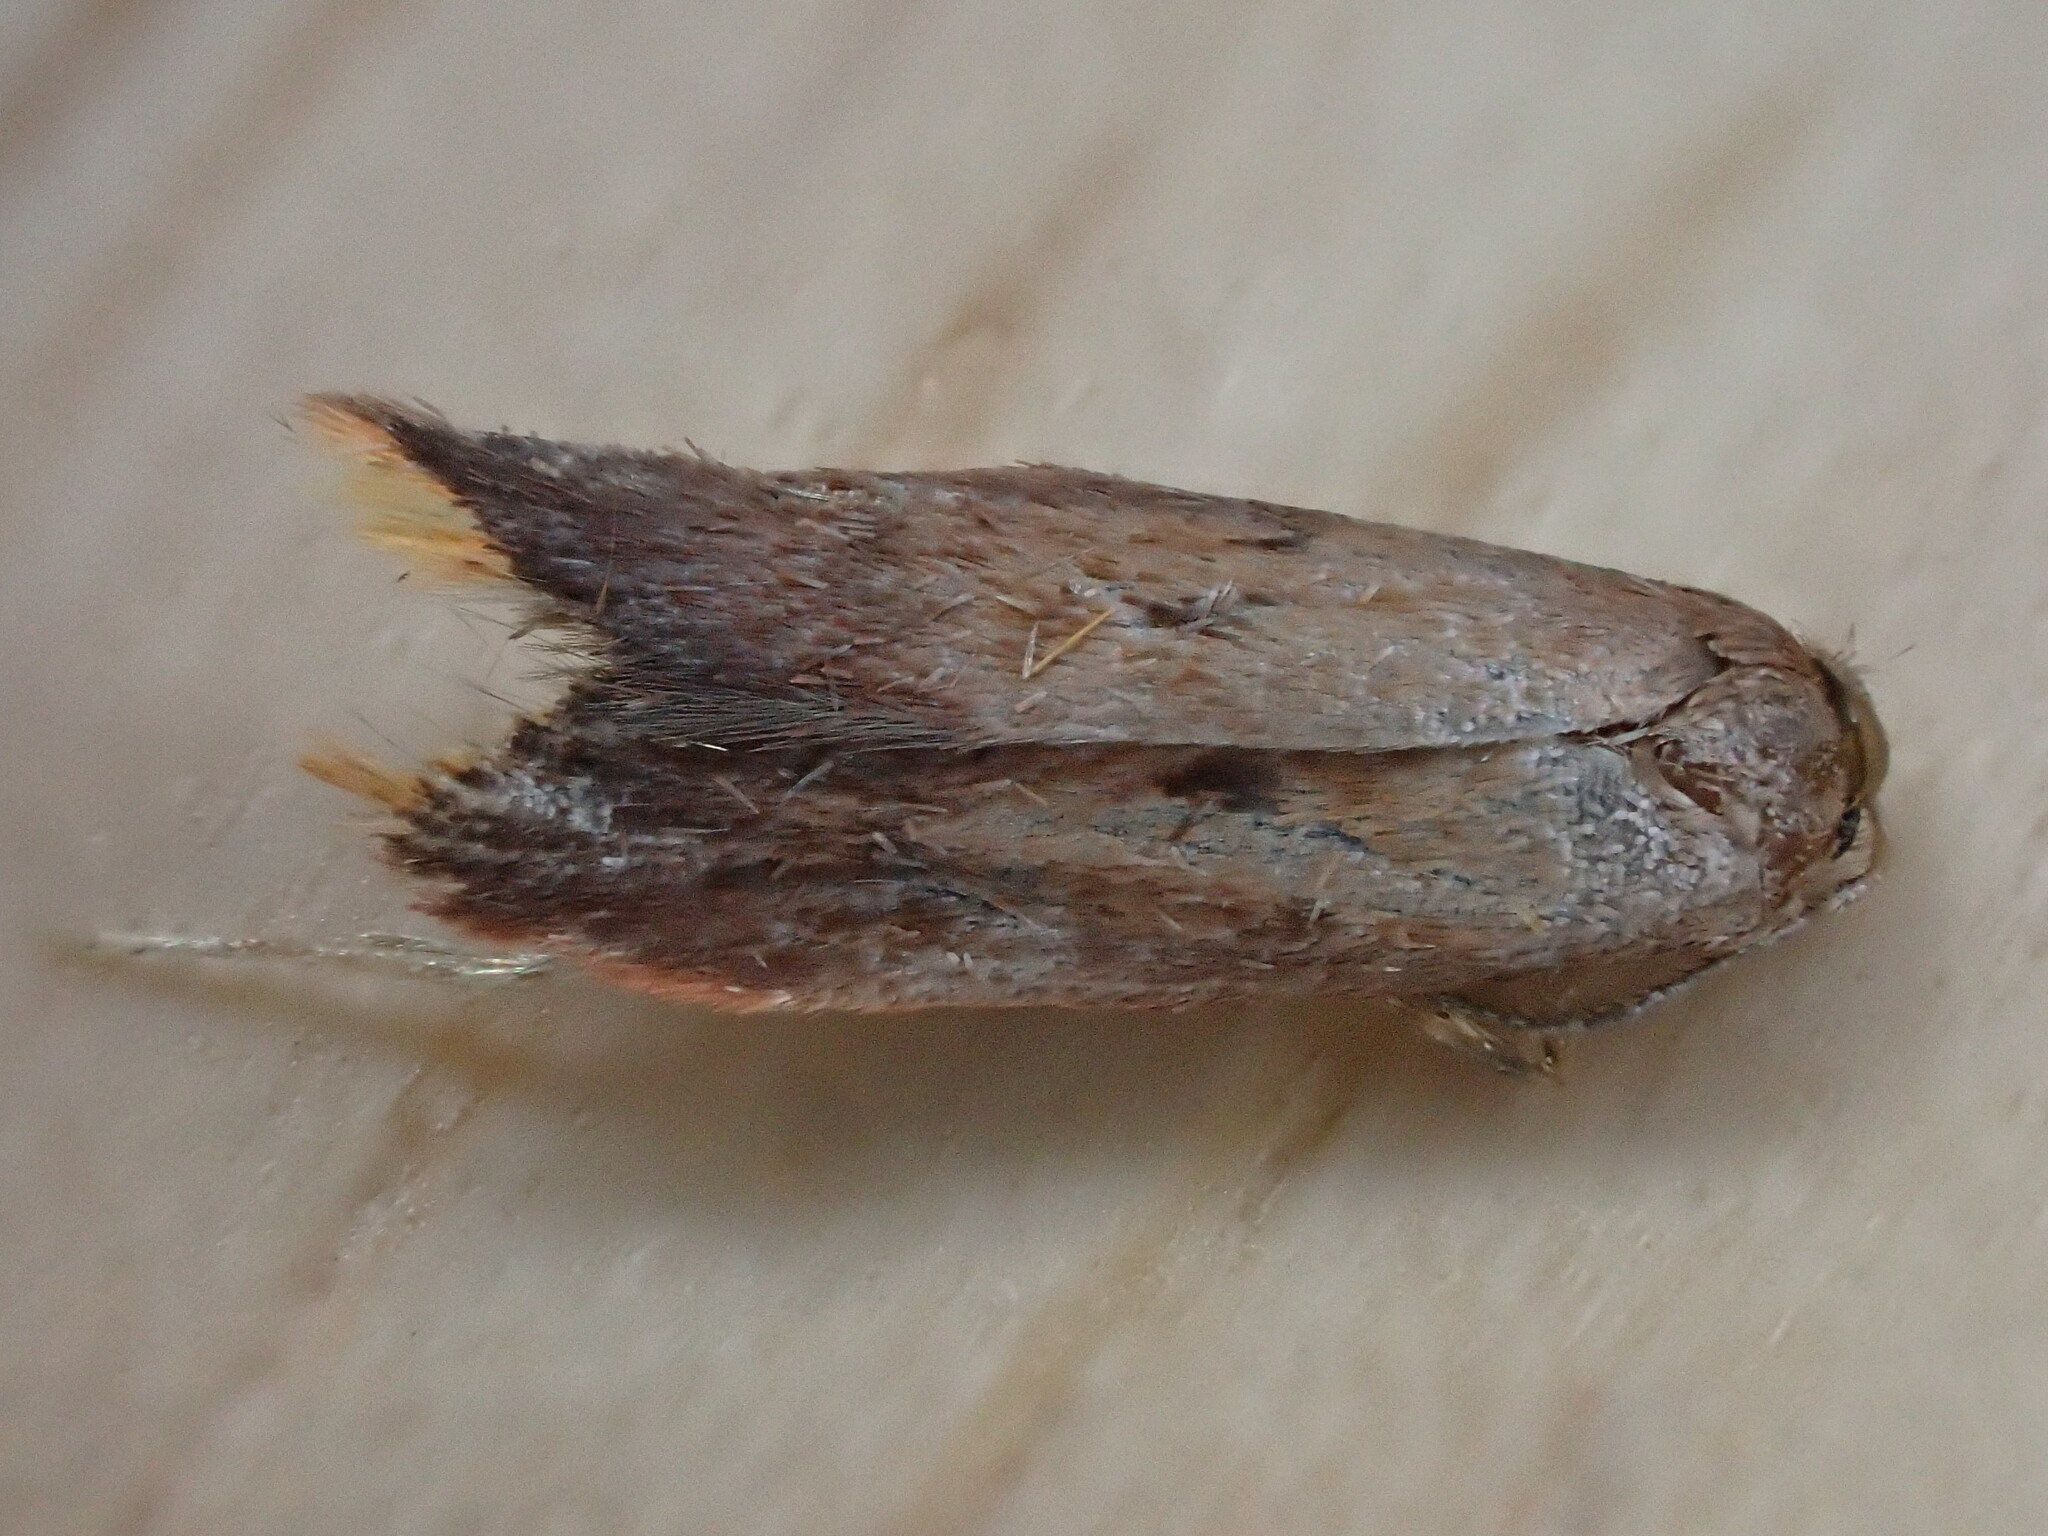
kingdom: Animalia
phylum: Arthropoda
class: Insecta
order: Lepidoptera
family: Oecophoridae
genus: Tachystola
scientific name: Tachystola acroxantha
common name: Ruddy streak
